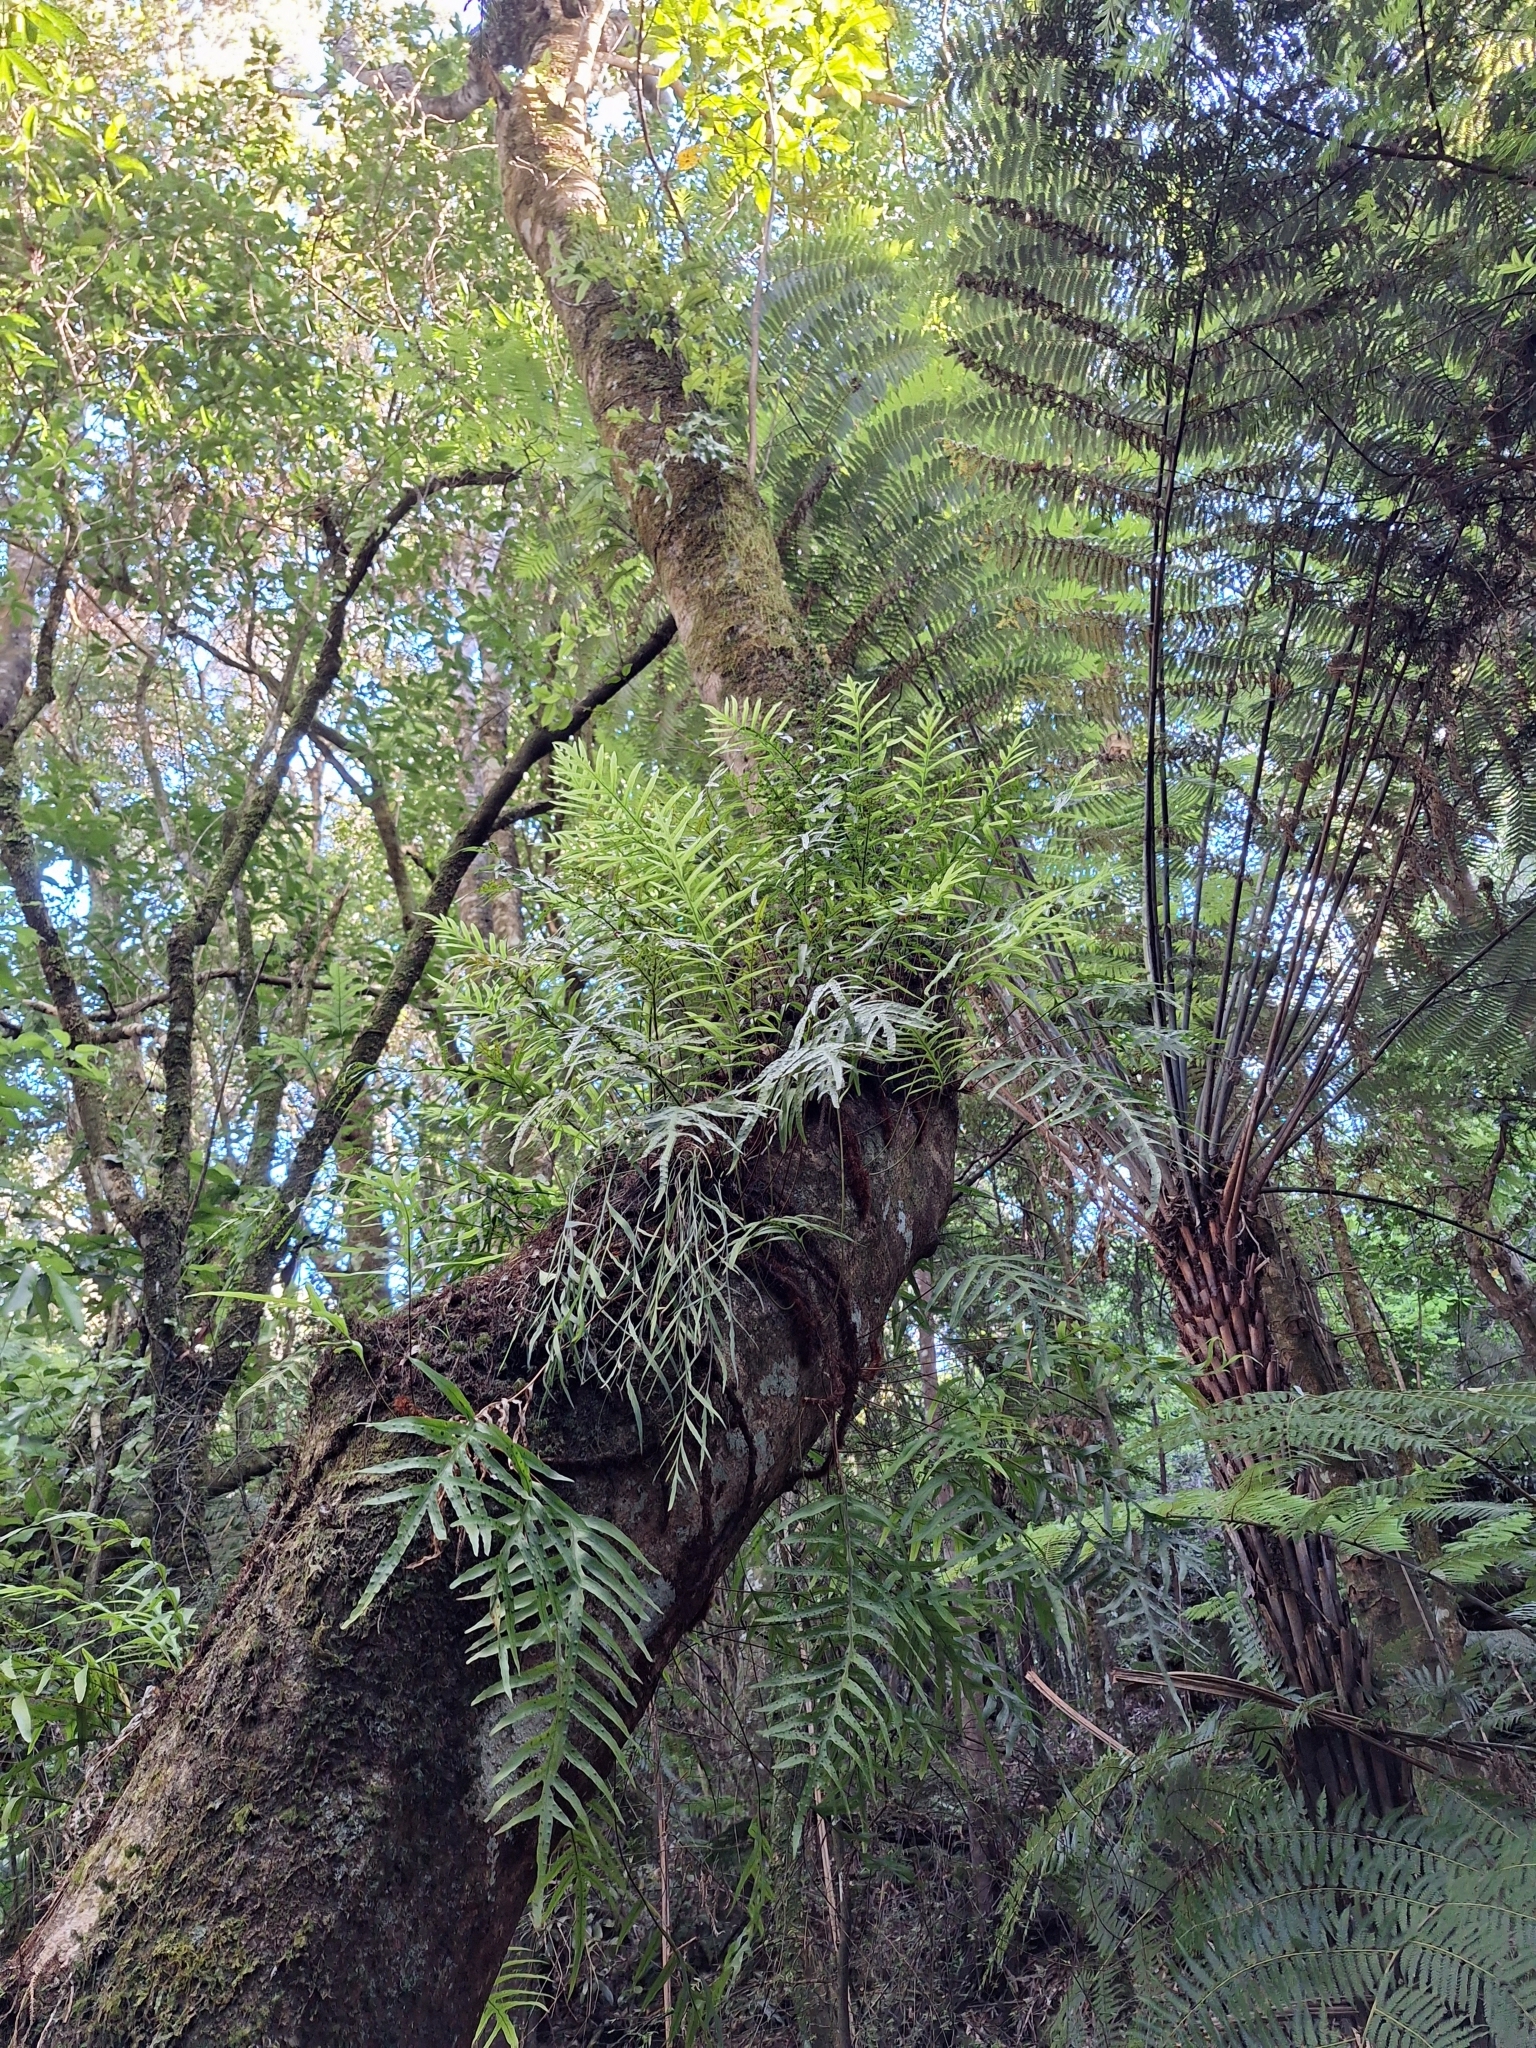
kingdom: Plantae
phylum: Tracheophyta
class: Polypodiopsida
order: Polypodiales
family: Polypodiaceae
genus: Lecanopteris
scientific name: Lecanopteris novae-zealandiae
